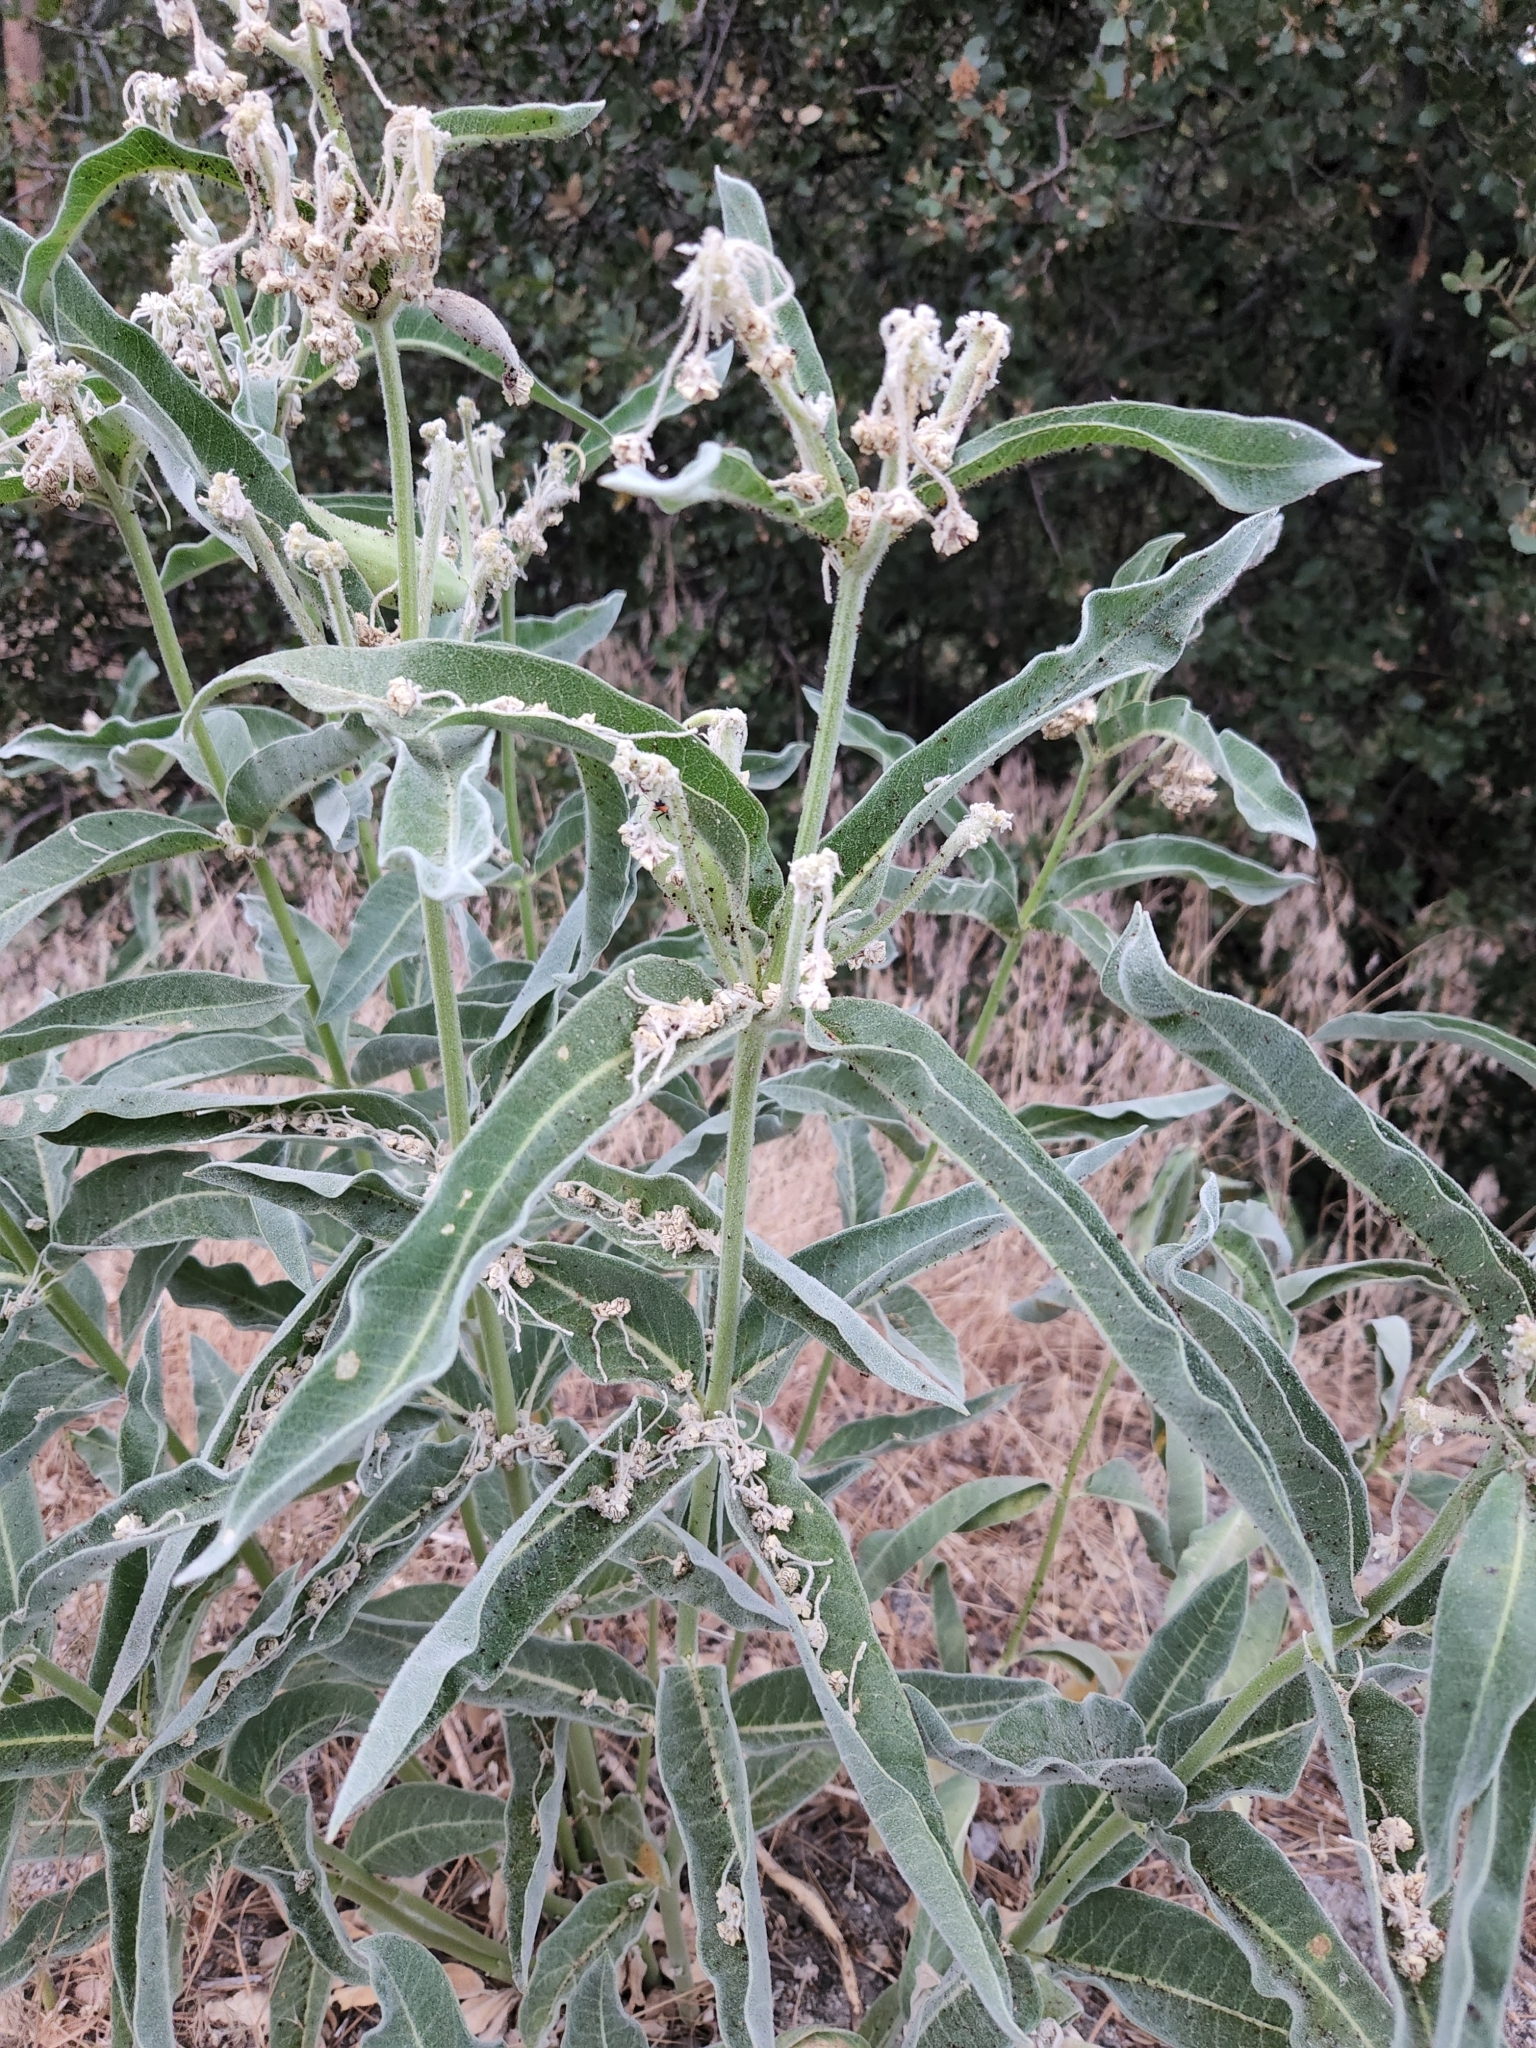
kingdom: Plantae
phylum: Tracheophyta
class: Magnoliopsida
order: Gentianales
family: Apocynaceae
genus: Asclepias
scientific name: Asclepias eriocarpa
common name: Indian milkweed
